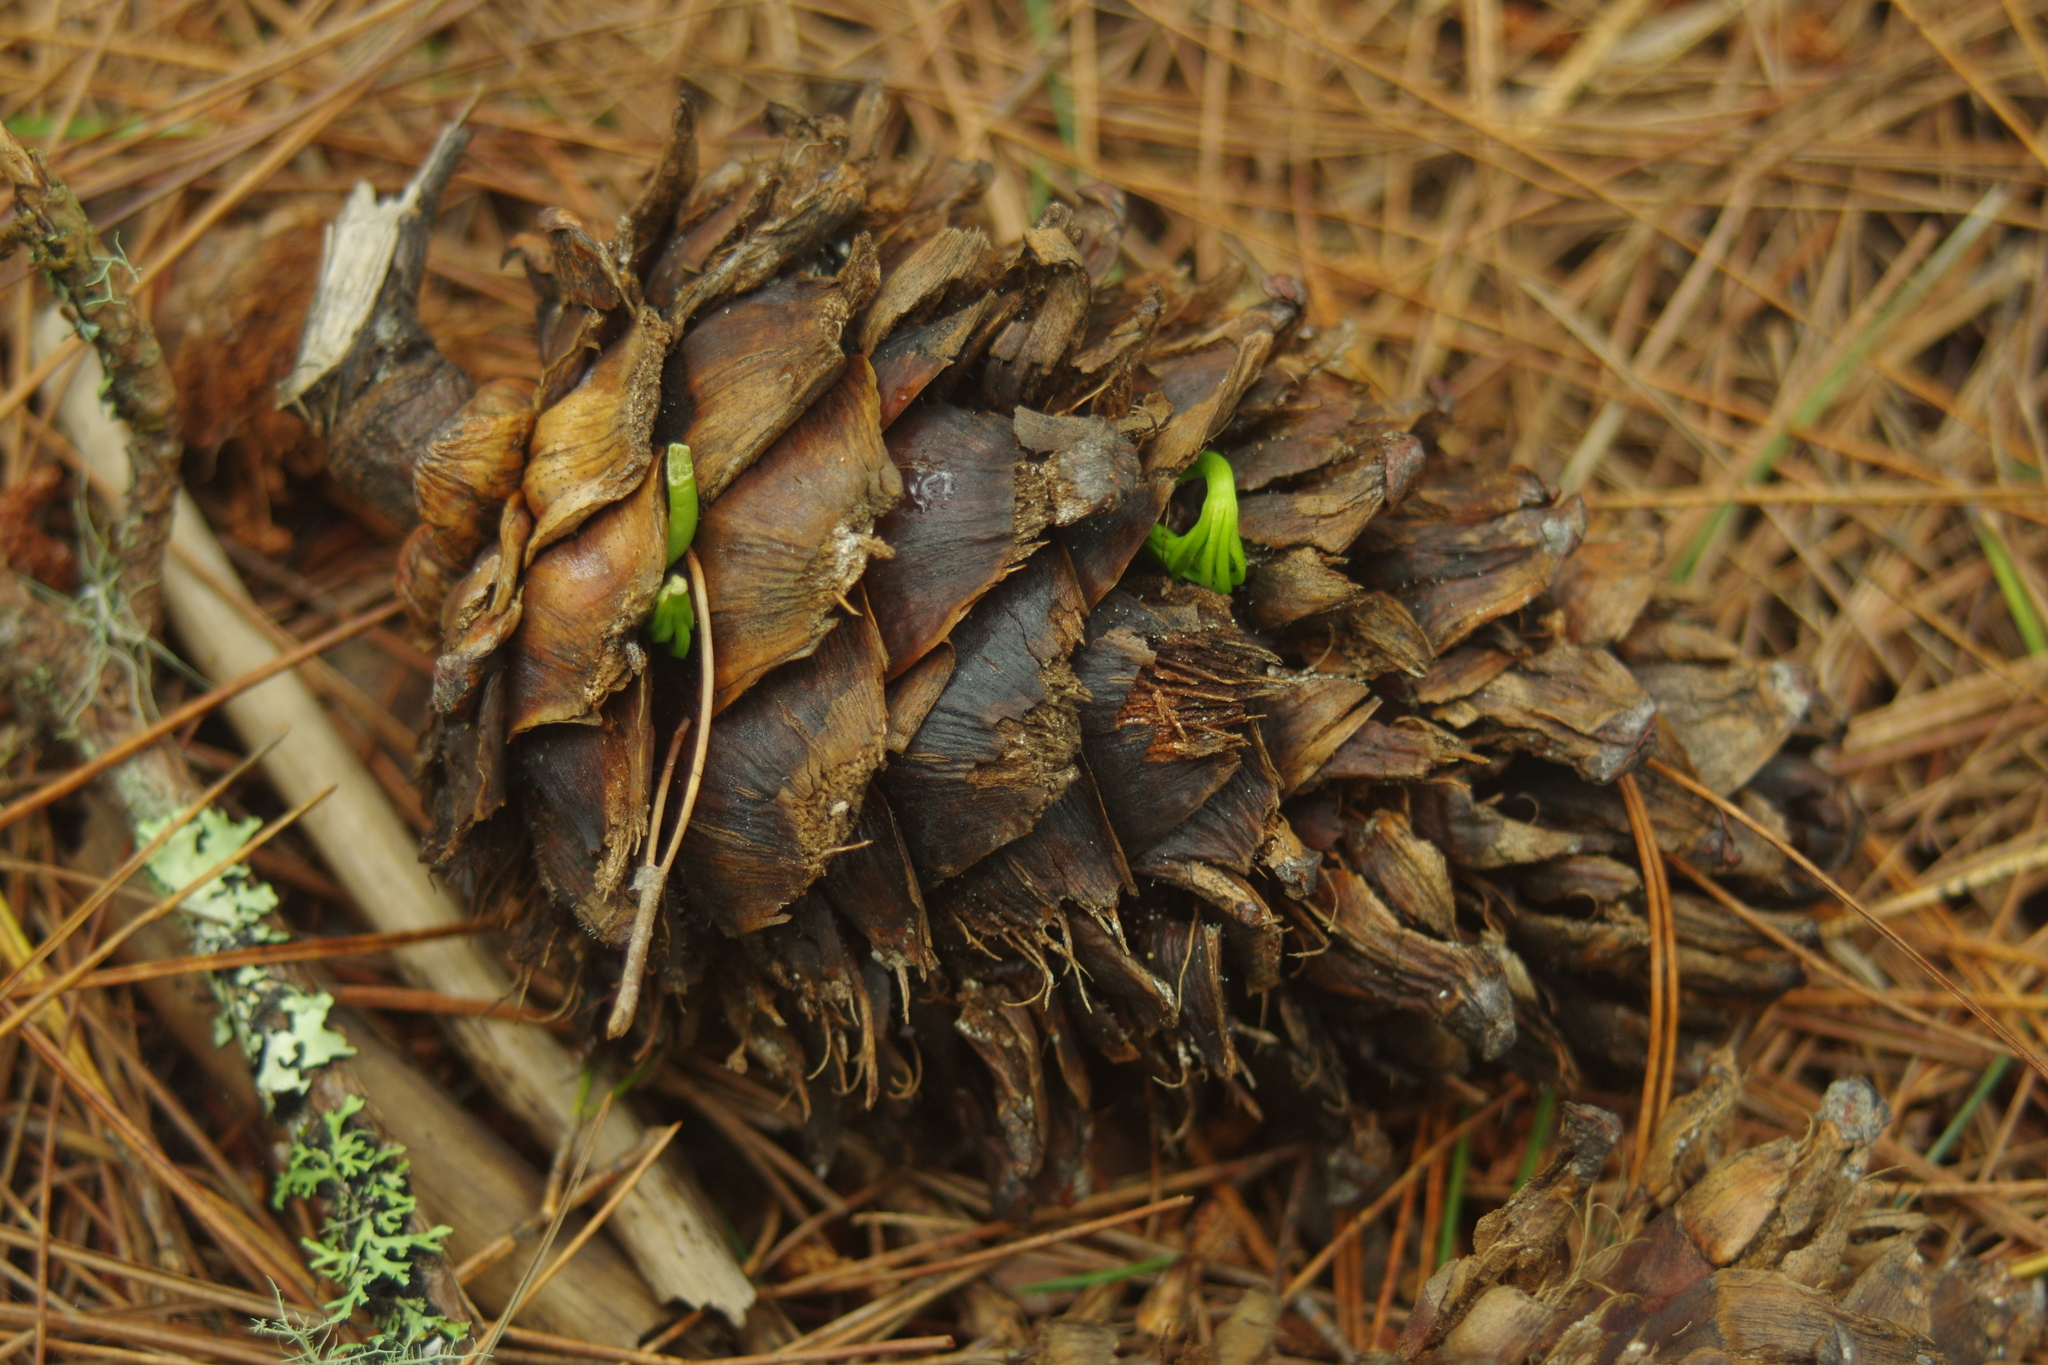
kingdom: Plantae
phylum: Tracheophyta
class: Pinopsida
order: Pinales
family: Pinaceae
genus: Pinus
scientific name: Pinus morrisonicola
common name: Taiwan white pine
